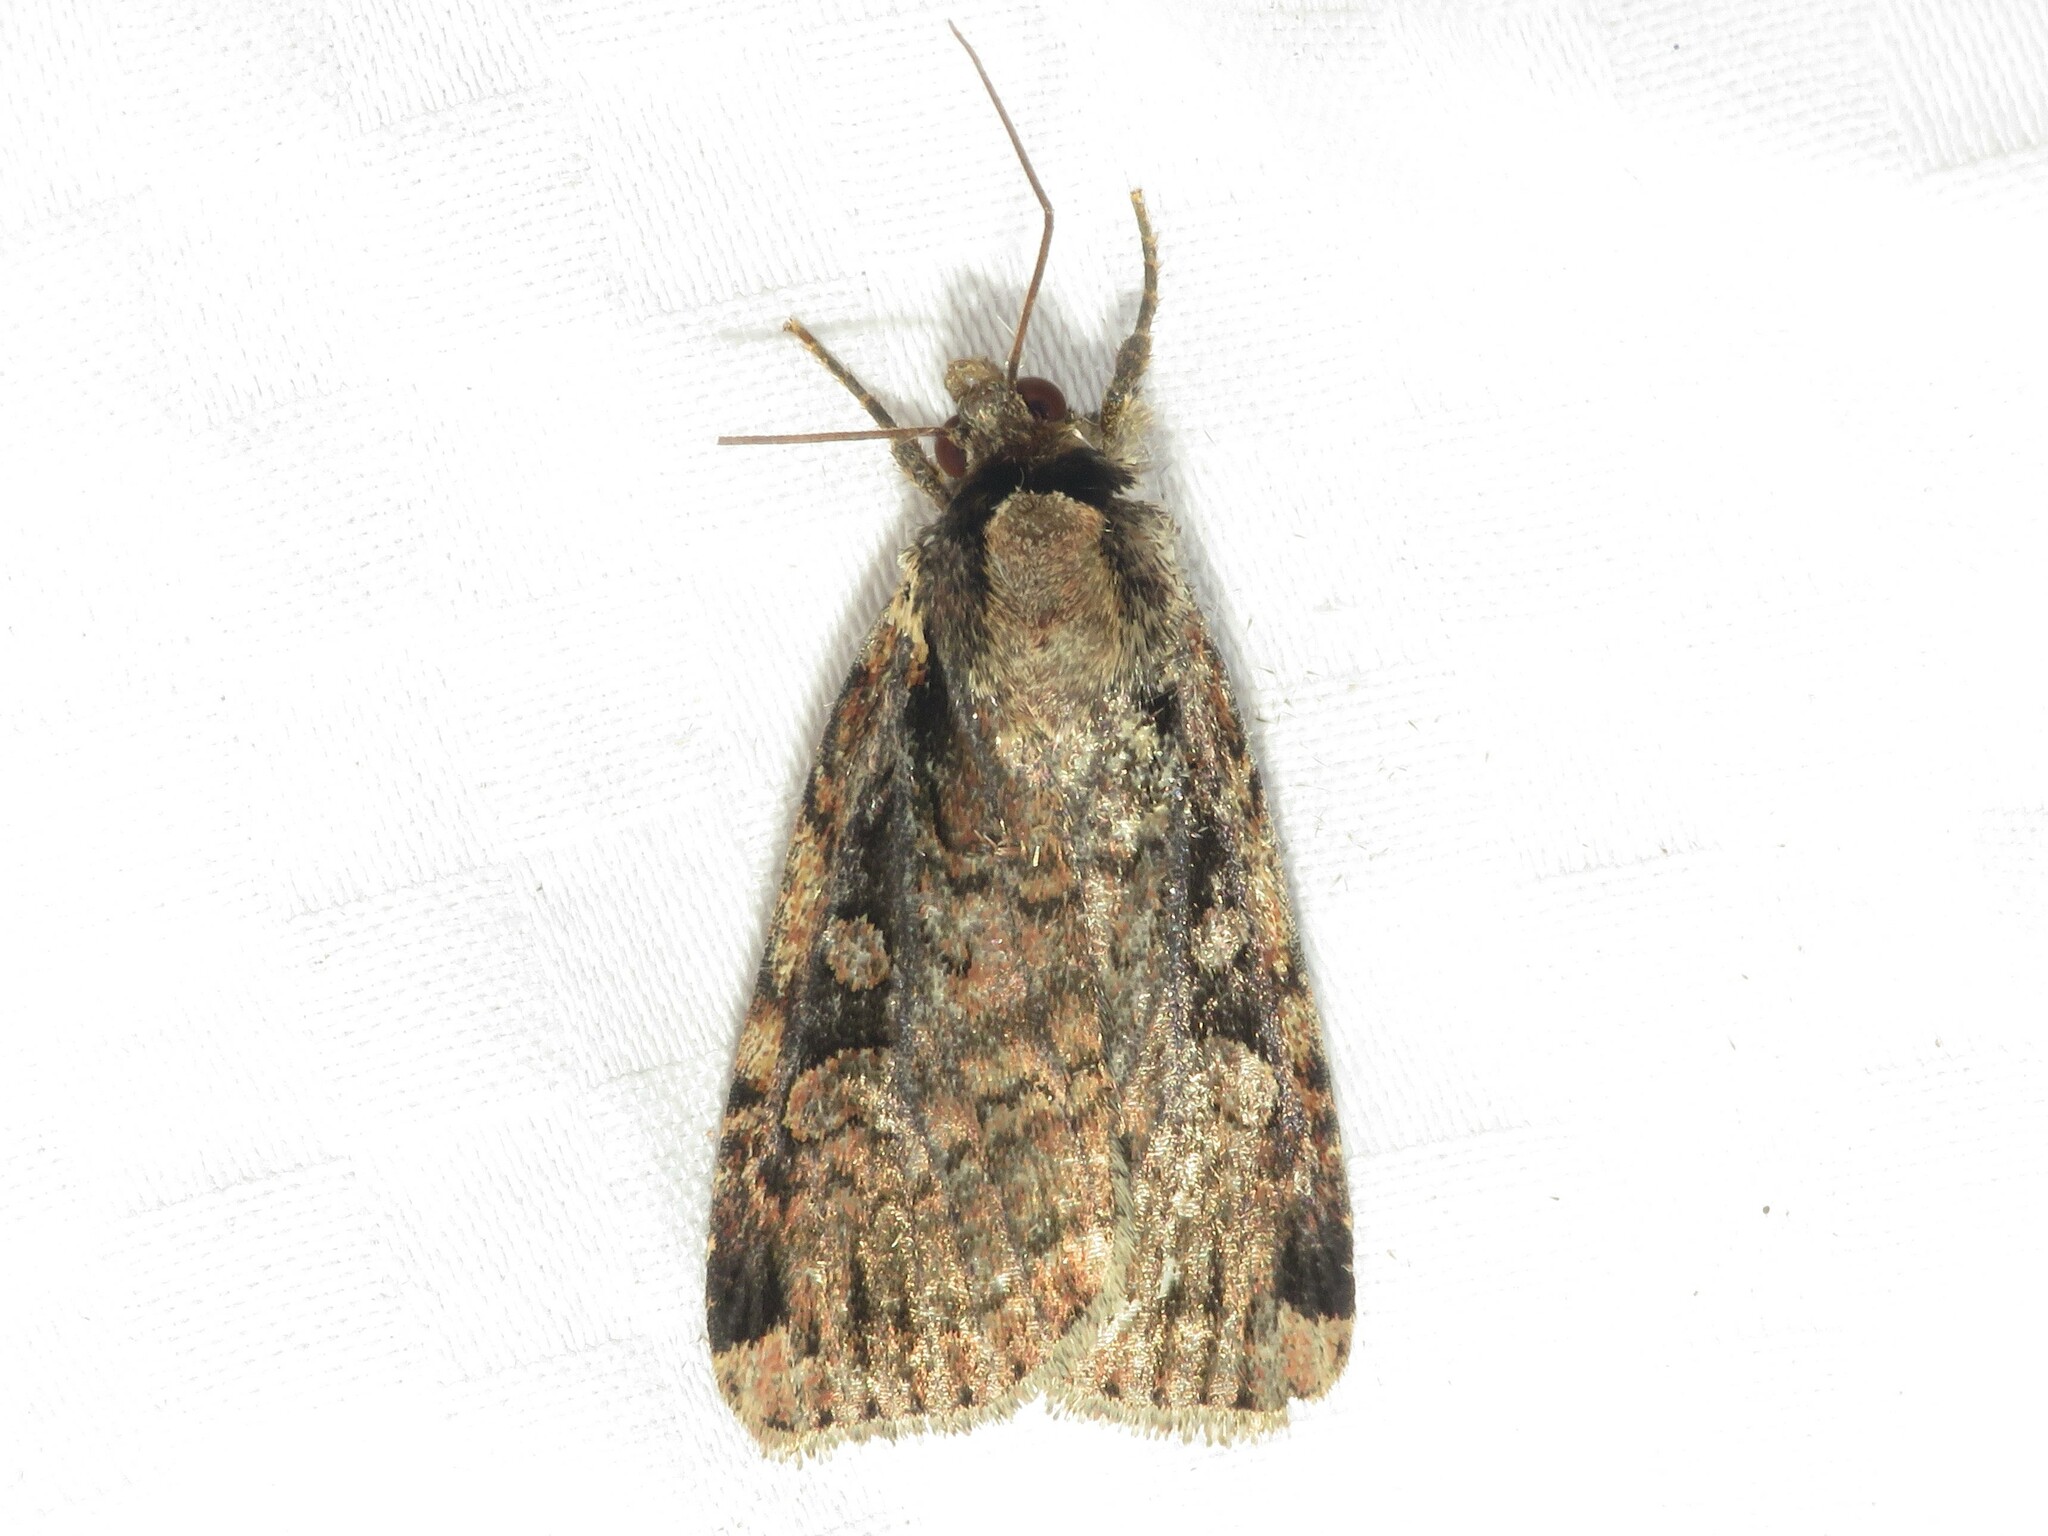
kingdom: Animalia
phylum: Arthropoda
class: Insecta
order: Lepidoptera
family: Noctuidae
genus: Eueretagrotis
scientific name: Eueretagrotis sigmoides
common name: Sigmoid dart
